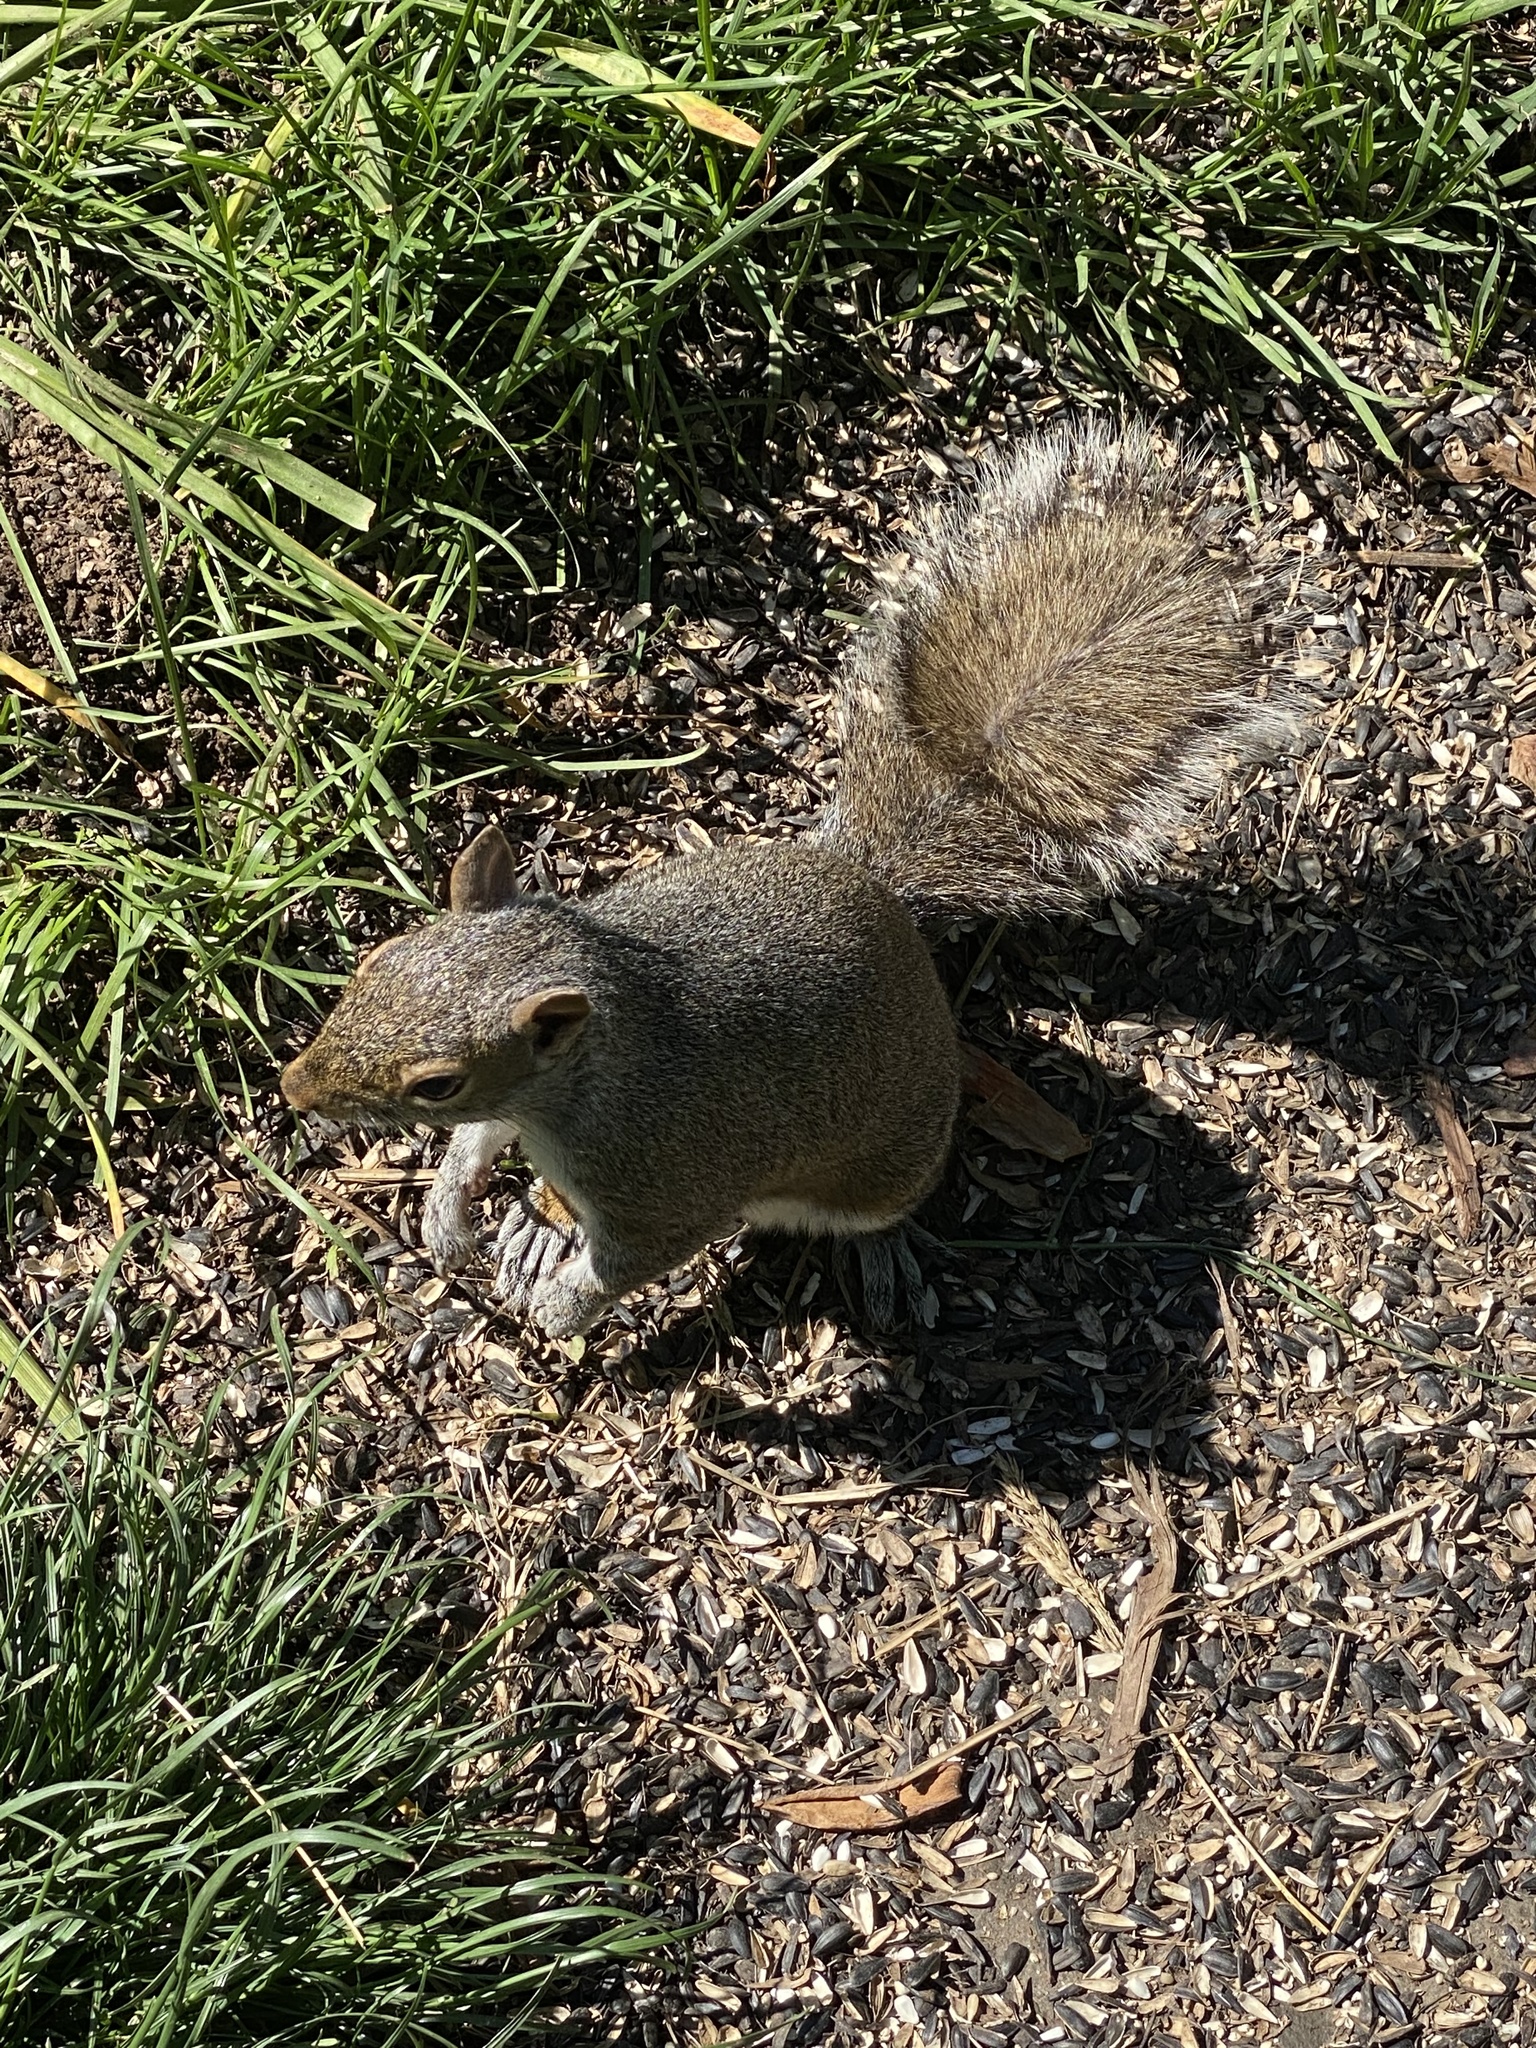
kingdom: Animalia
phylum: Chordata
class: Mammalia
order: Rodentia
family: Sciuridae
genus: Sciurus
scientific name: Sciurus carolinensis
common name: Eastern gray squirrel
